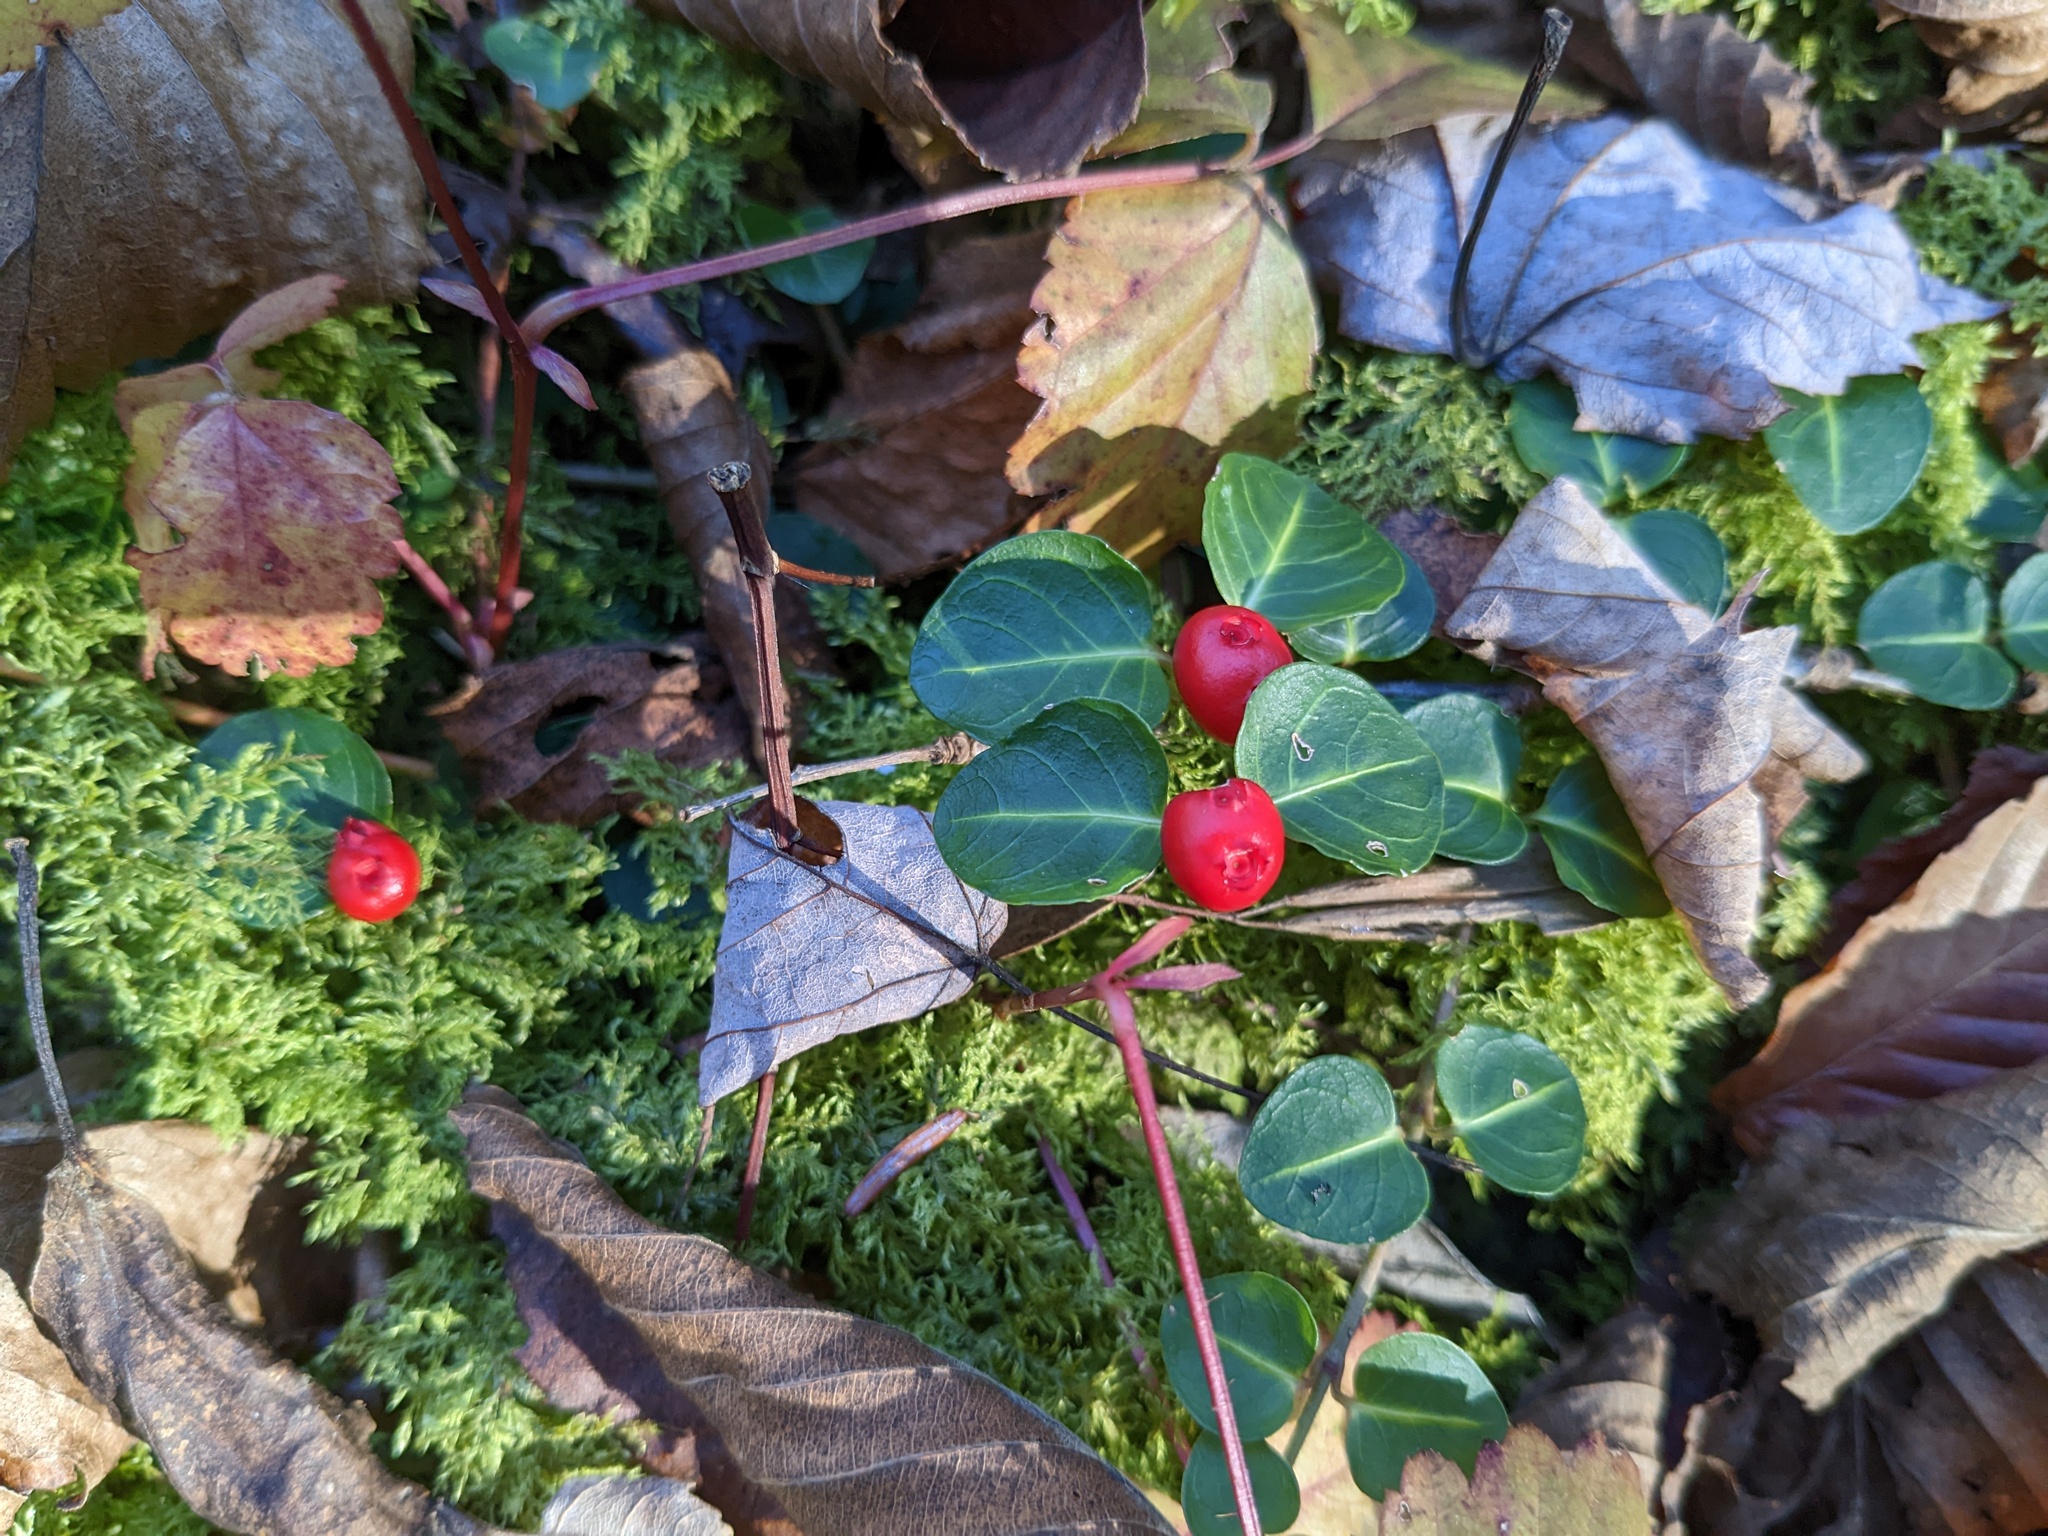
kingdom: Plantae
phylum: Tracheophyta
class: Magnoliopsida
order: Gentianales
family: Rubiaceae
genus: Mitchella
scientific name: Mitchella repens
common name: Partridge-berry
